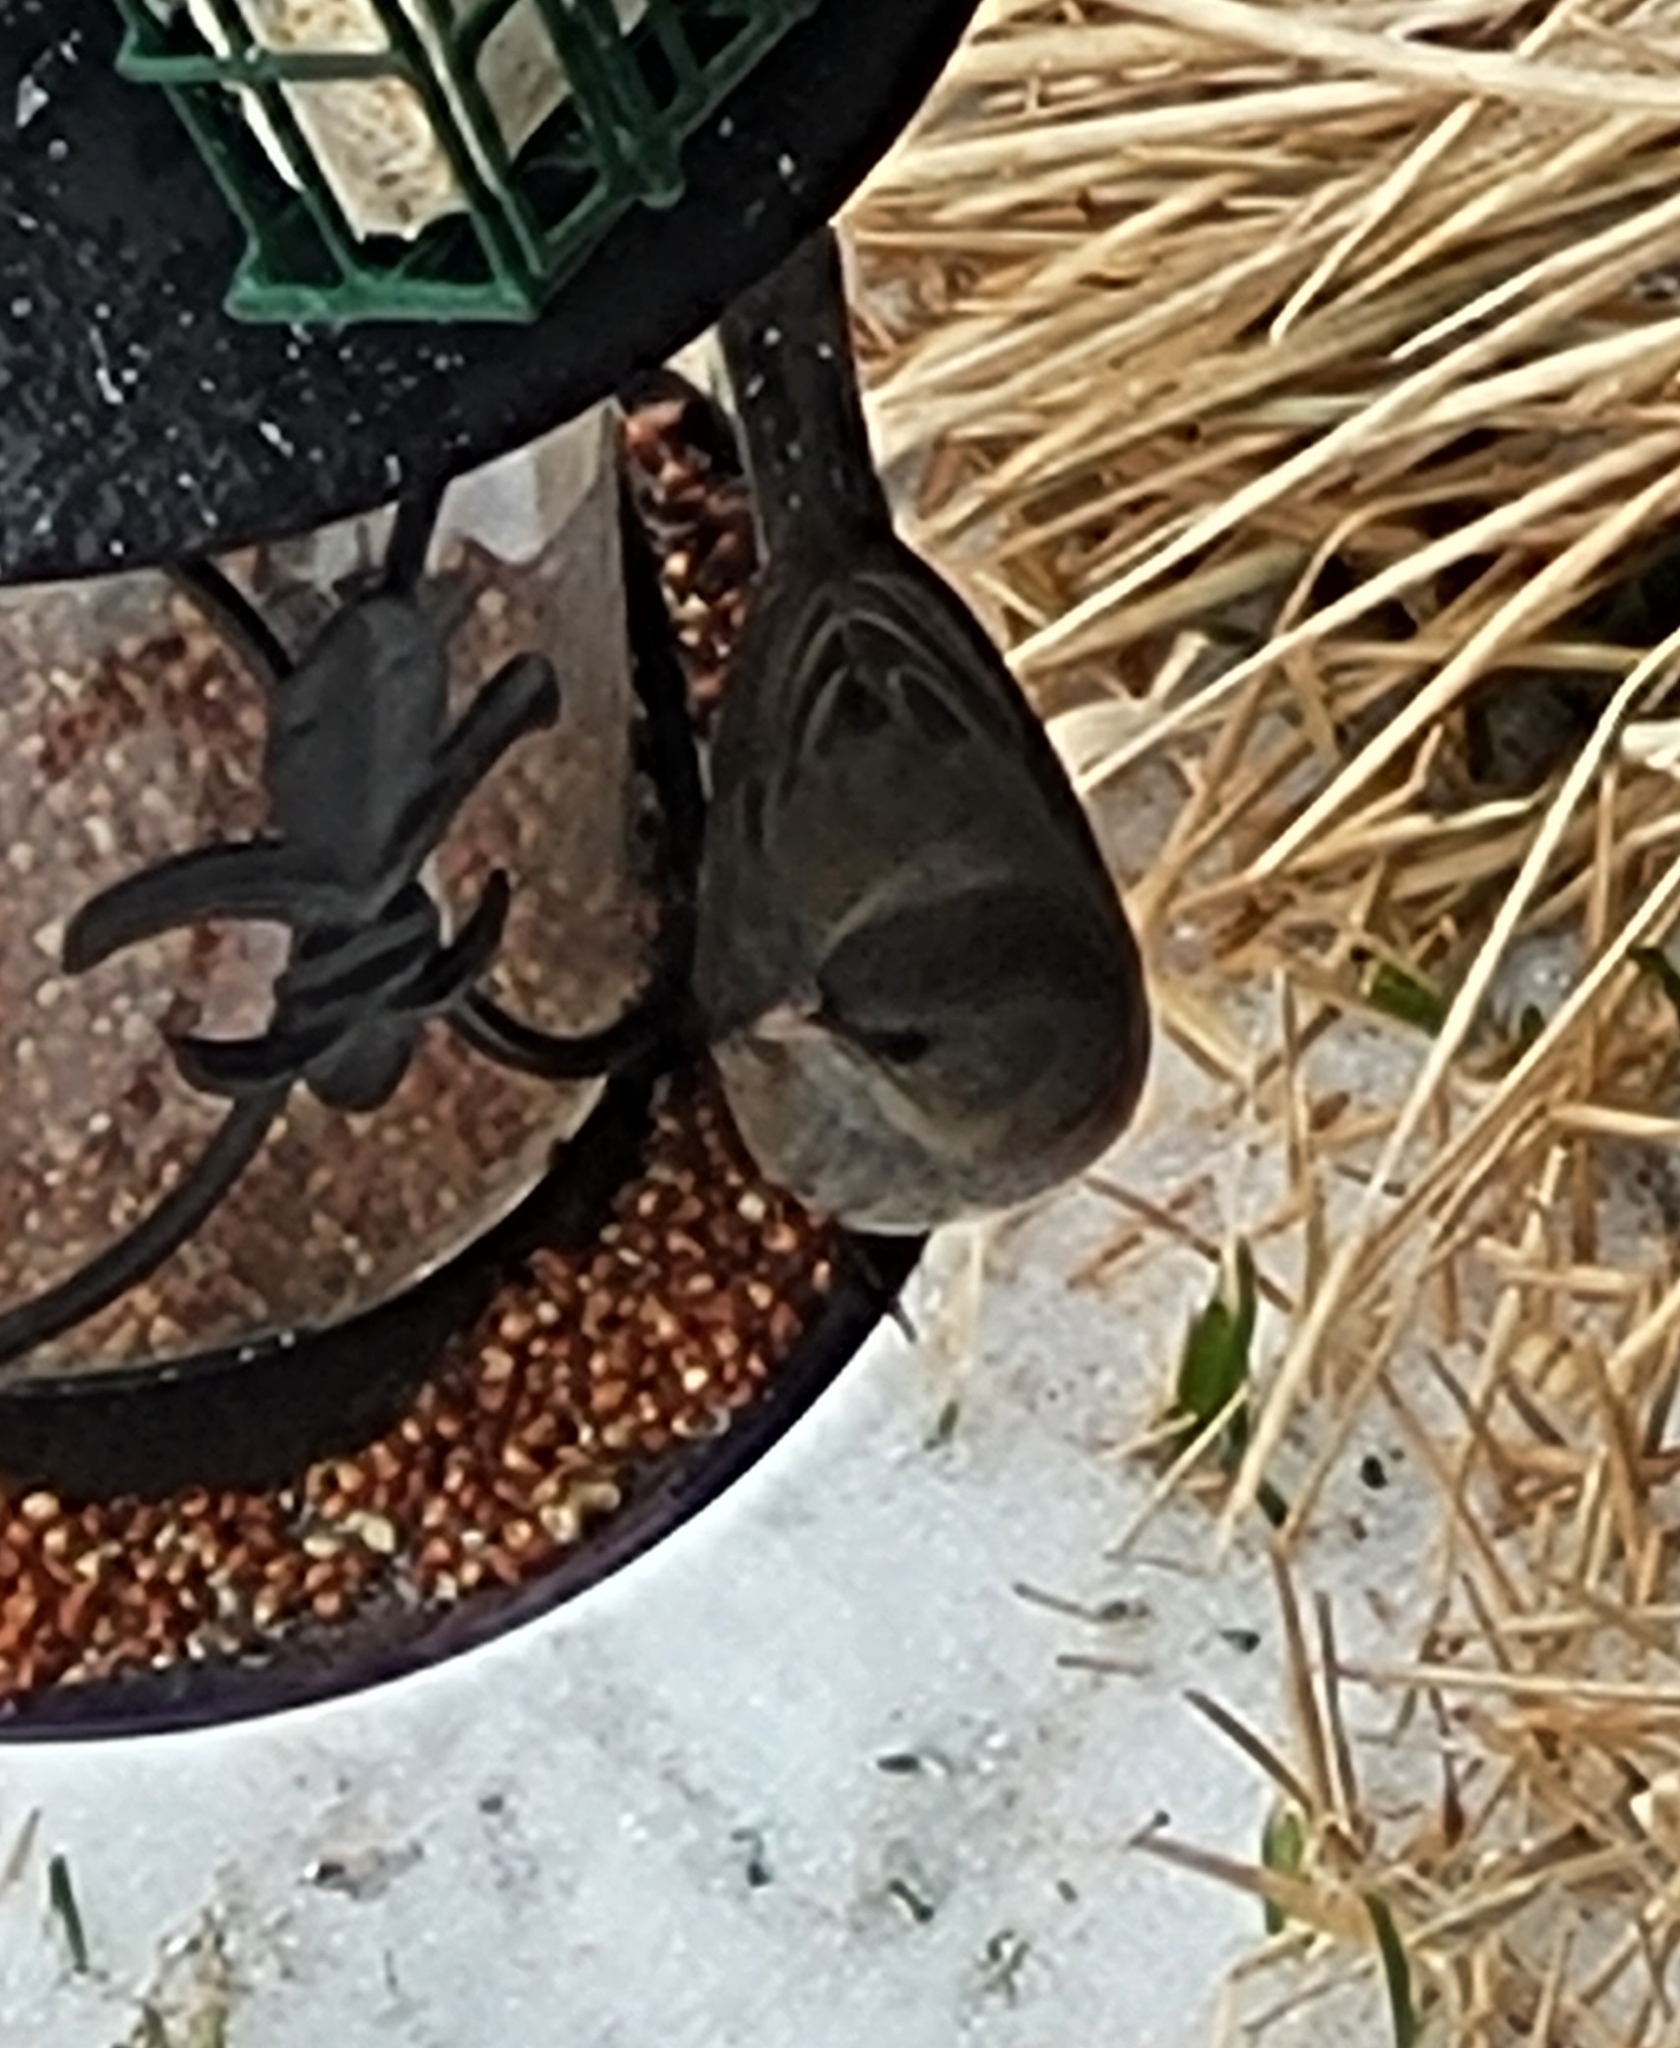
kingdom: Animalia
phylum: Chordata
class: Aves
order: Passeriformes
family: Passerellidae
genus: Junco
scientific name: Junco hyemalis
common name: Dark-eyed junco
